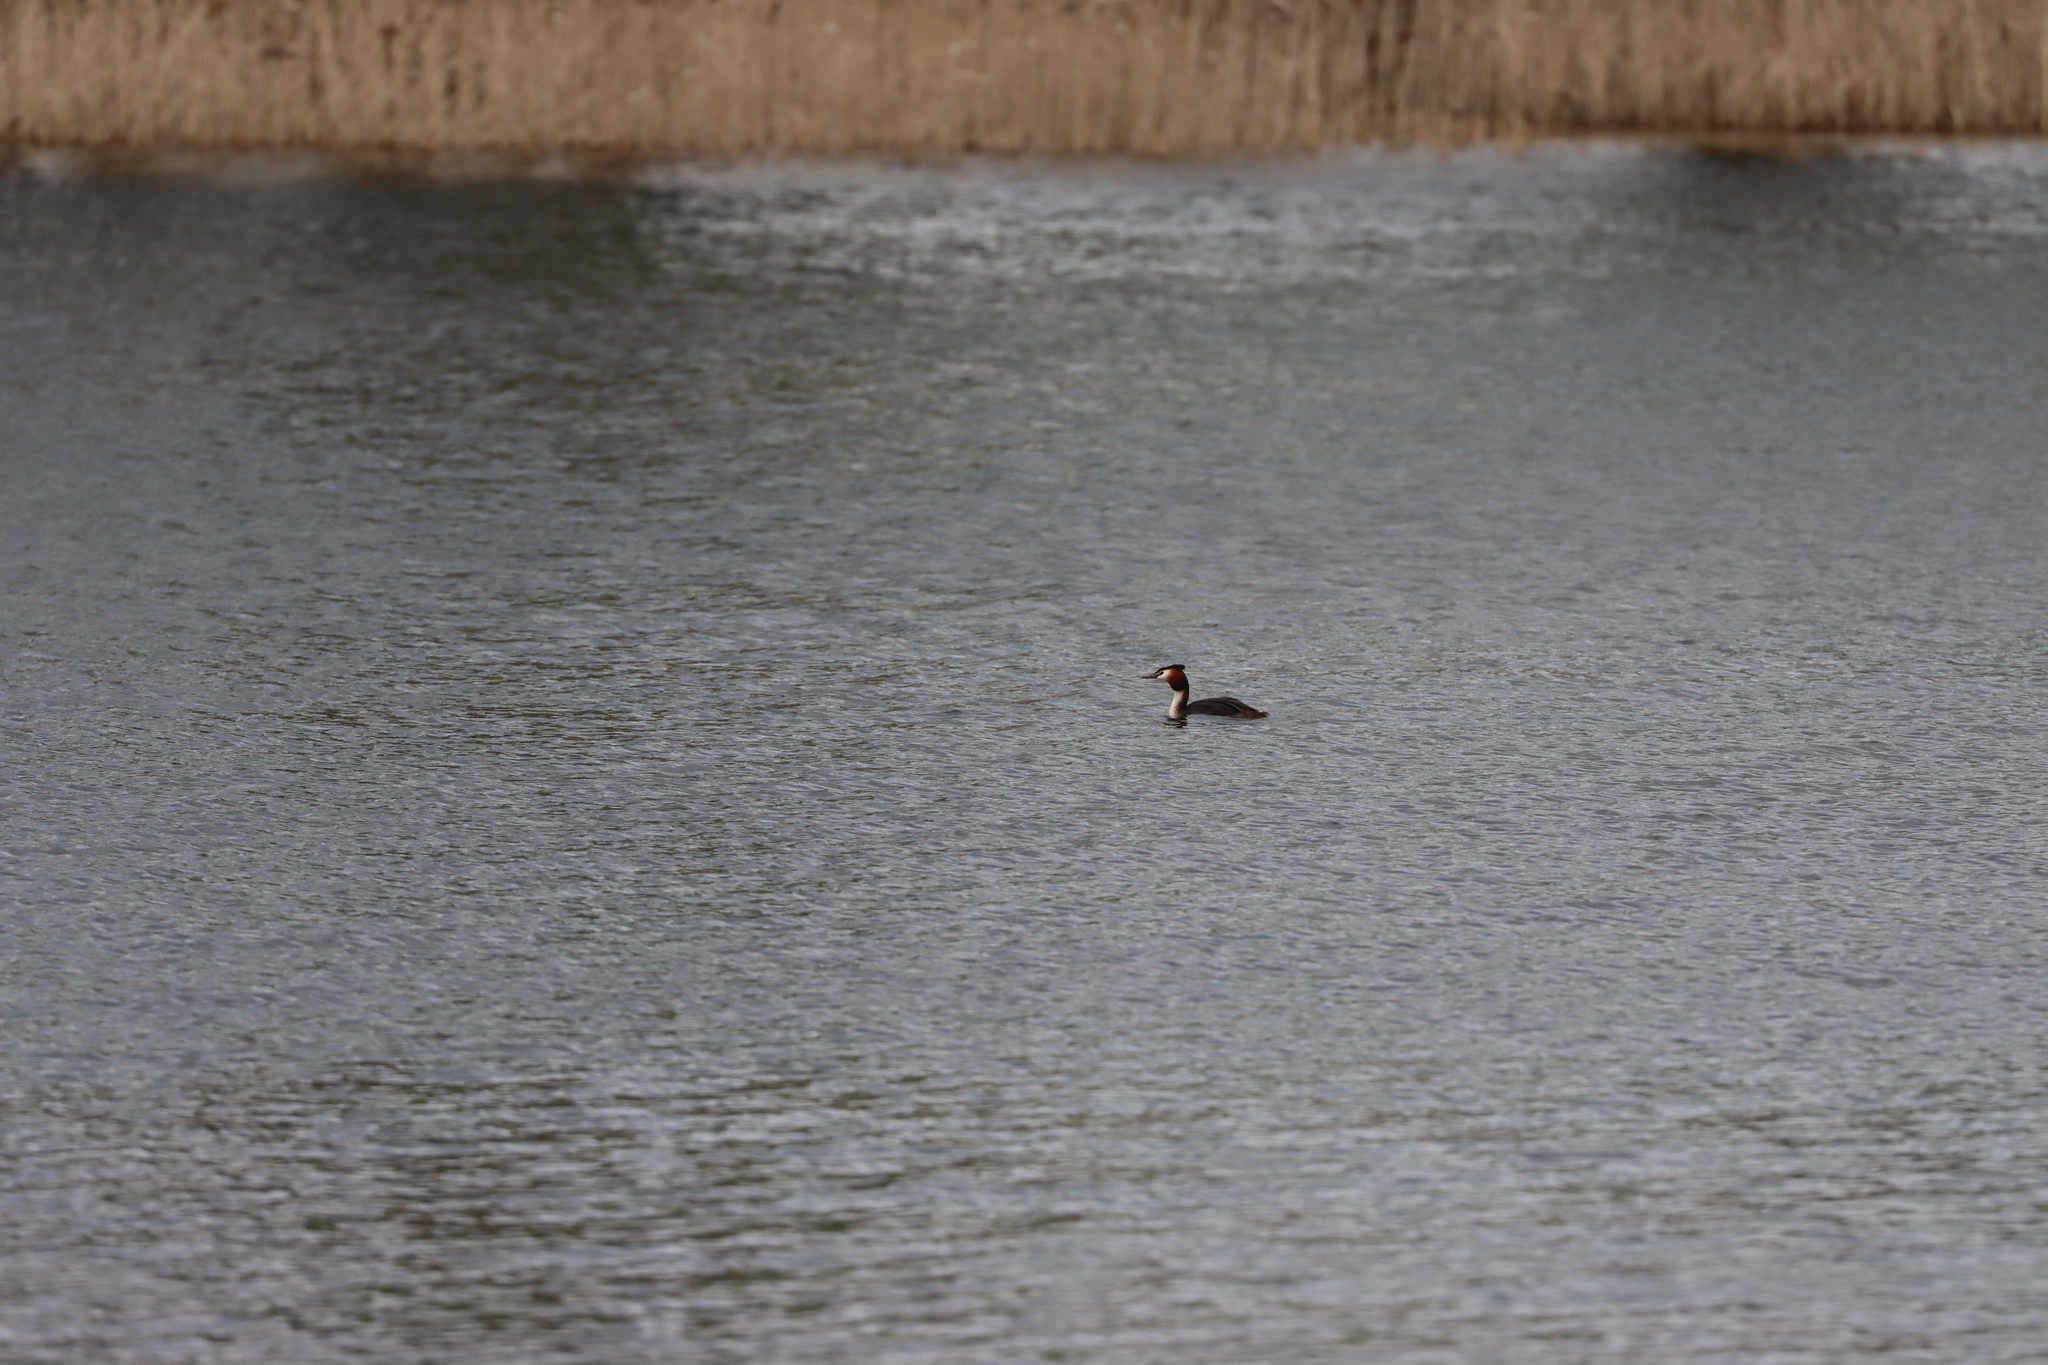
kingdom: Animalia
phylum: Chordata
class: Aves
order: Podicipediformes
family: Podicipedidae
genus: Podiceps
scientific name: Podiceps cristatus
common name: Great crested grebe
